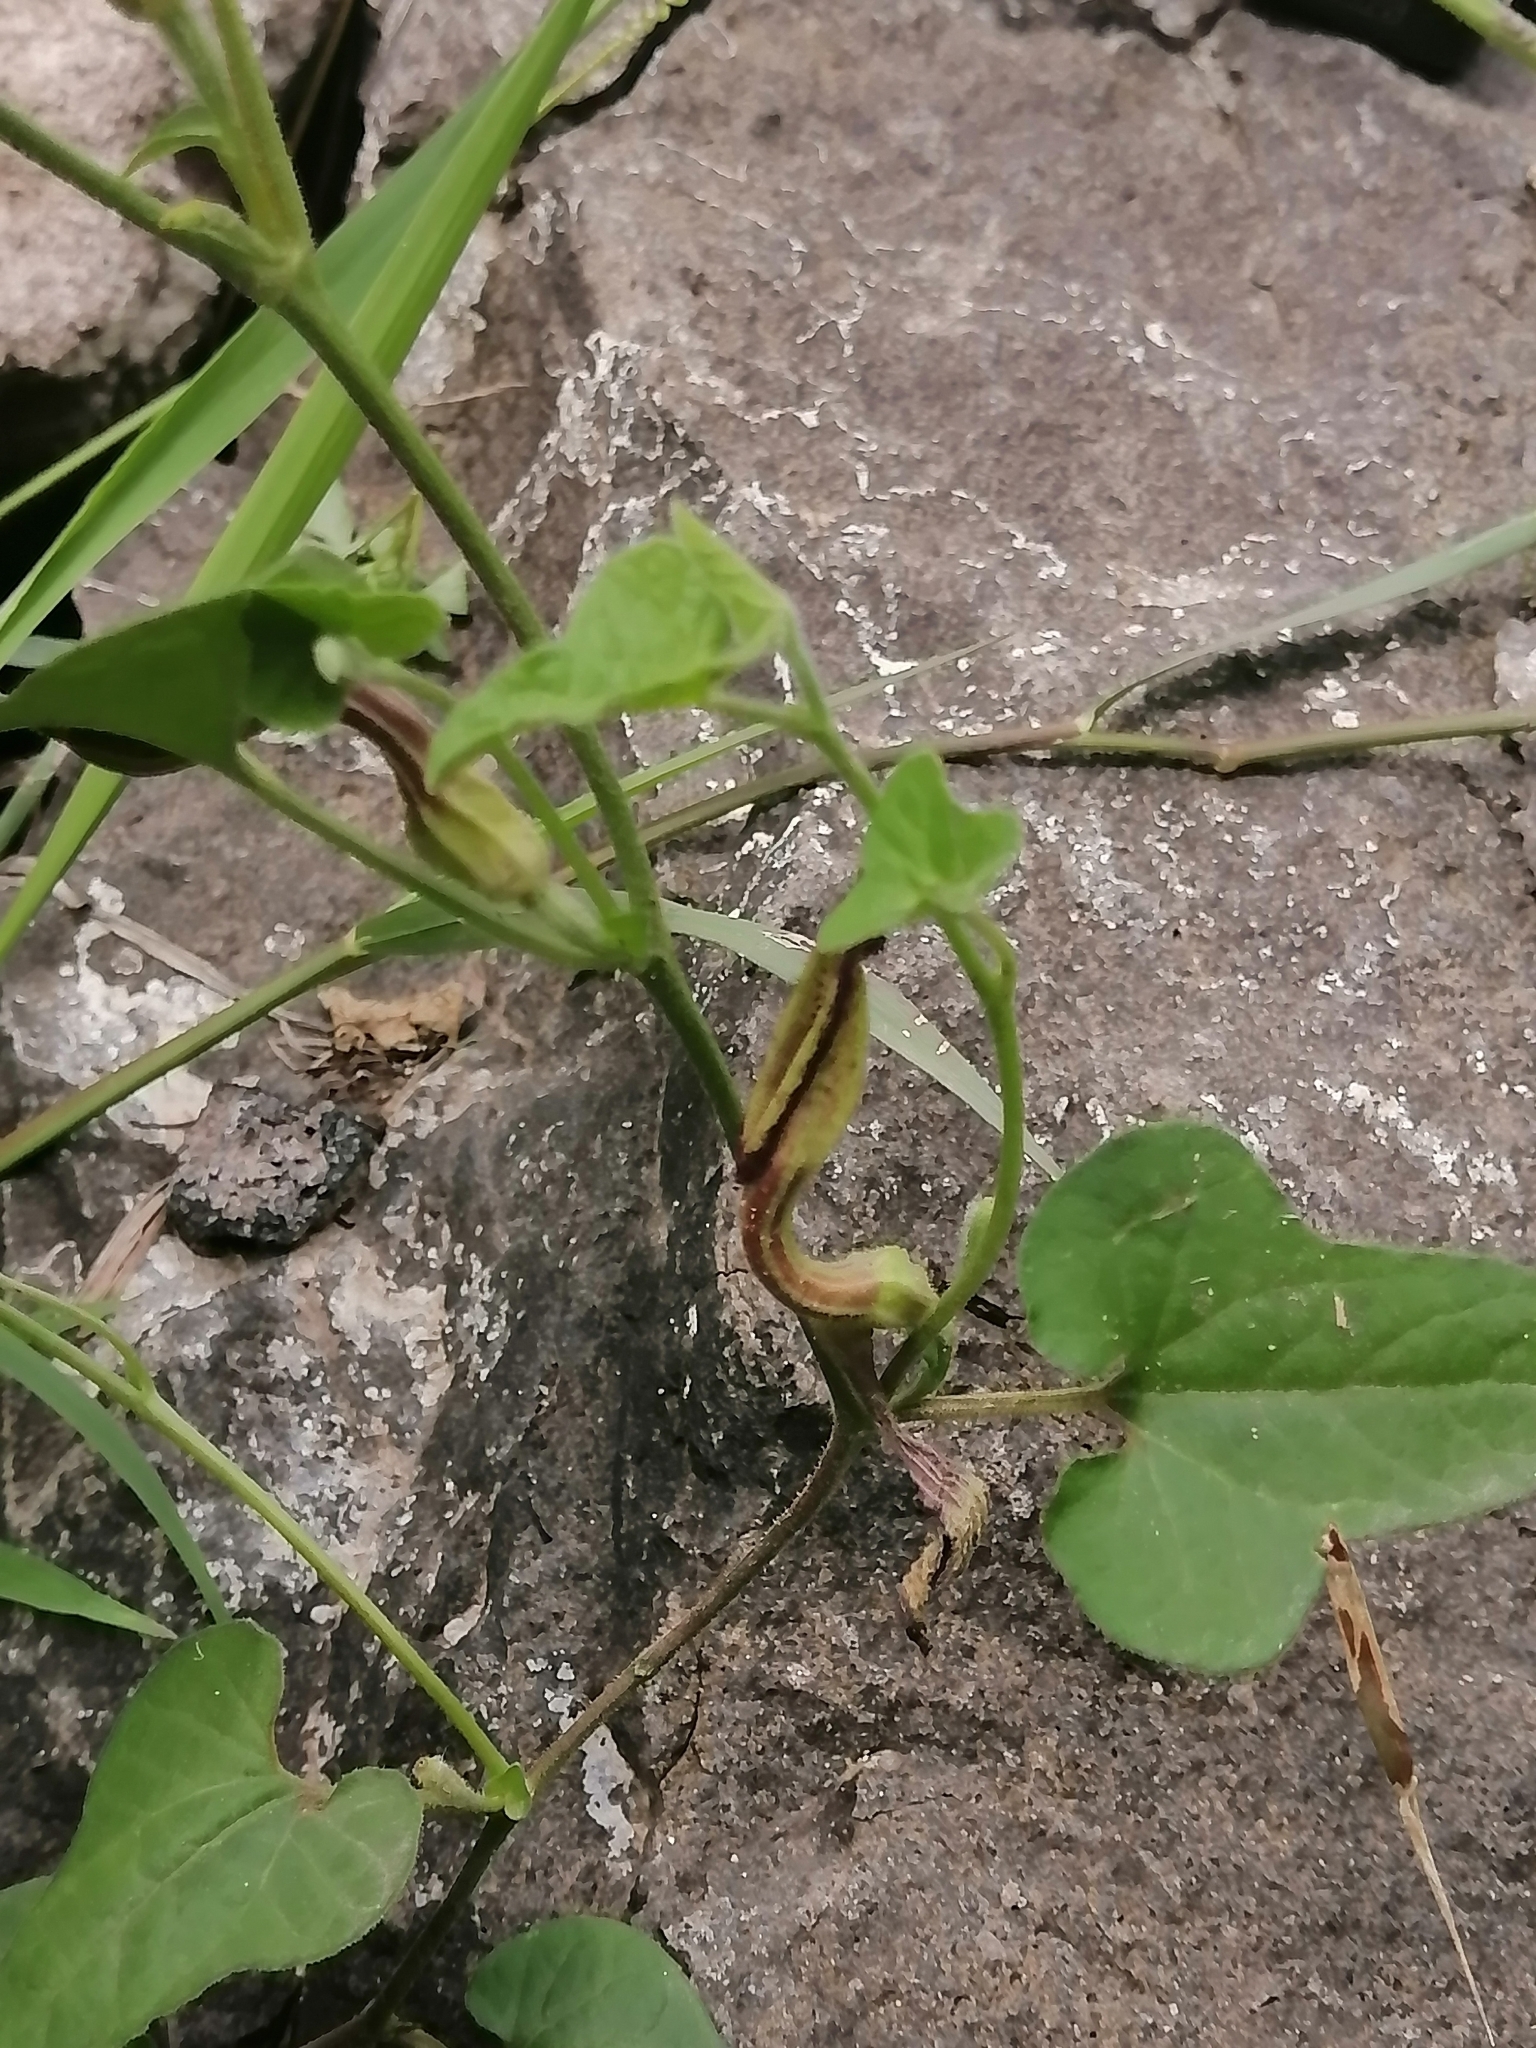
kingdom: Plantae
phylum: Tracheophyta
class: Magnoliopsida
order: Piperales
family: Aristolochiaceae
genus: Aristolochia
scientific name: Aristolochia versabilifolia
